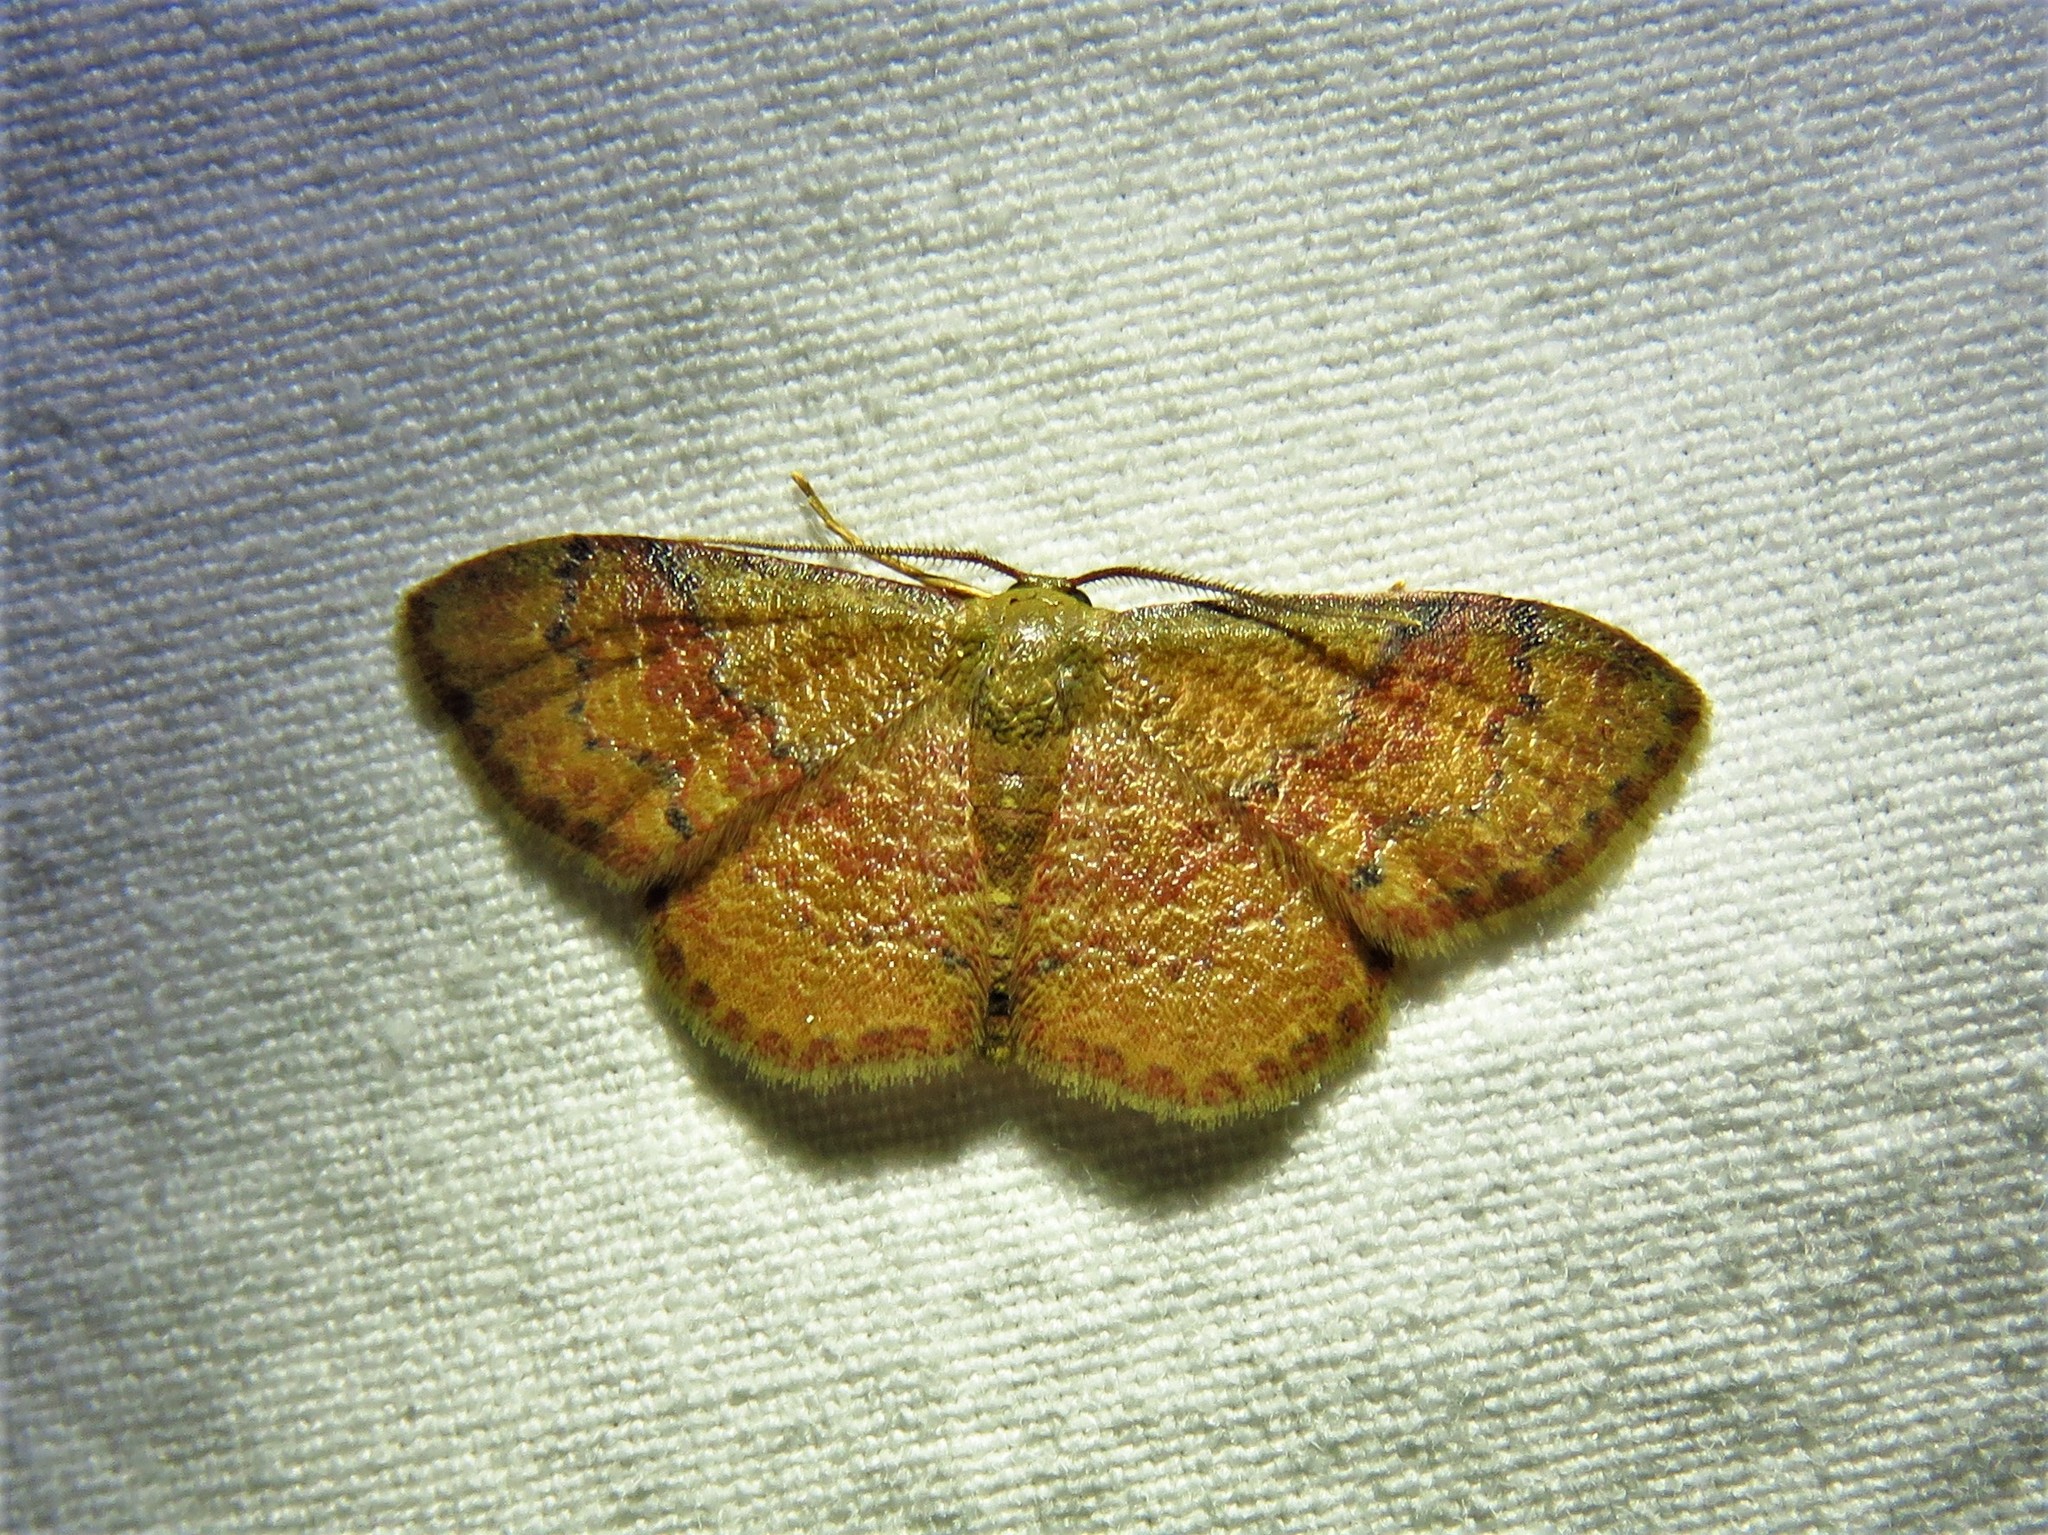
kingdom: Animalia
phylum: Arthropoda
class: Insecta
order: Lepidoptera
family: Geometridae
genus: Leptostales
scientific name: Leptostales ferruminaria
